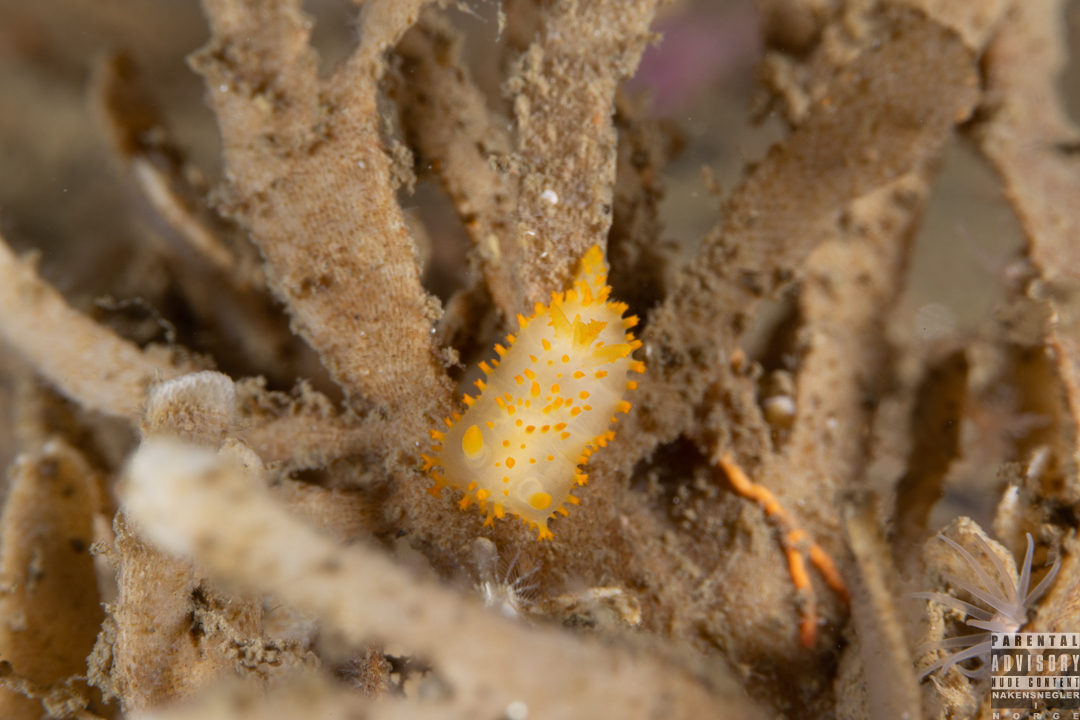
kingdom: Animalia
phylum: Mollusca
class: Gastropoda
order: Nudibranchia
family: Polyceridae
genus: Crimora
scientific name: Crimora papillata
